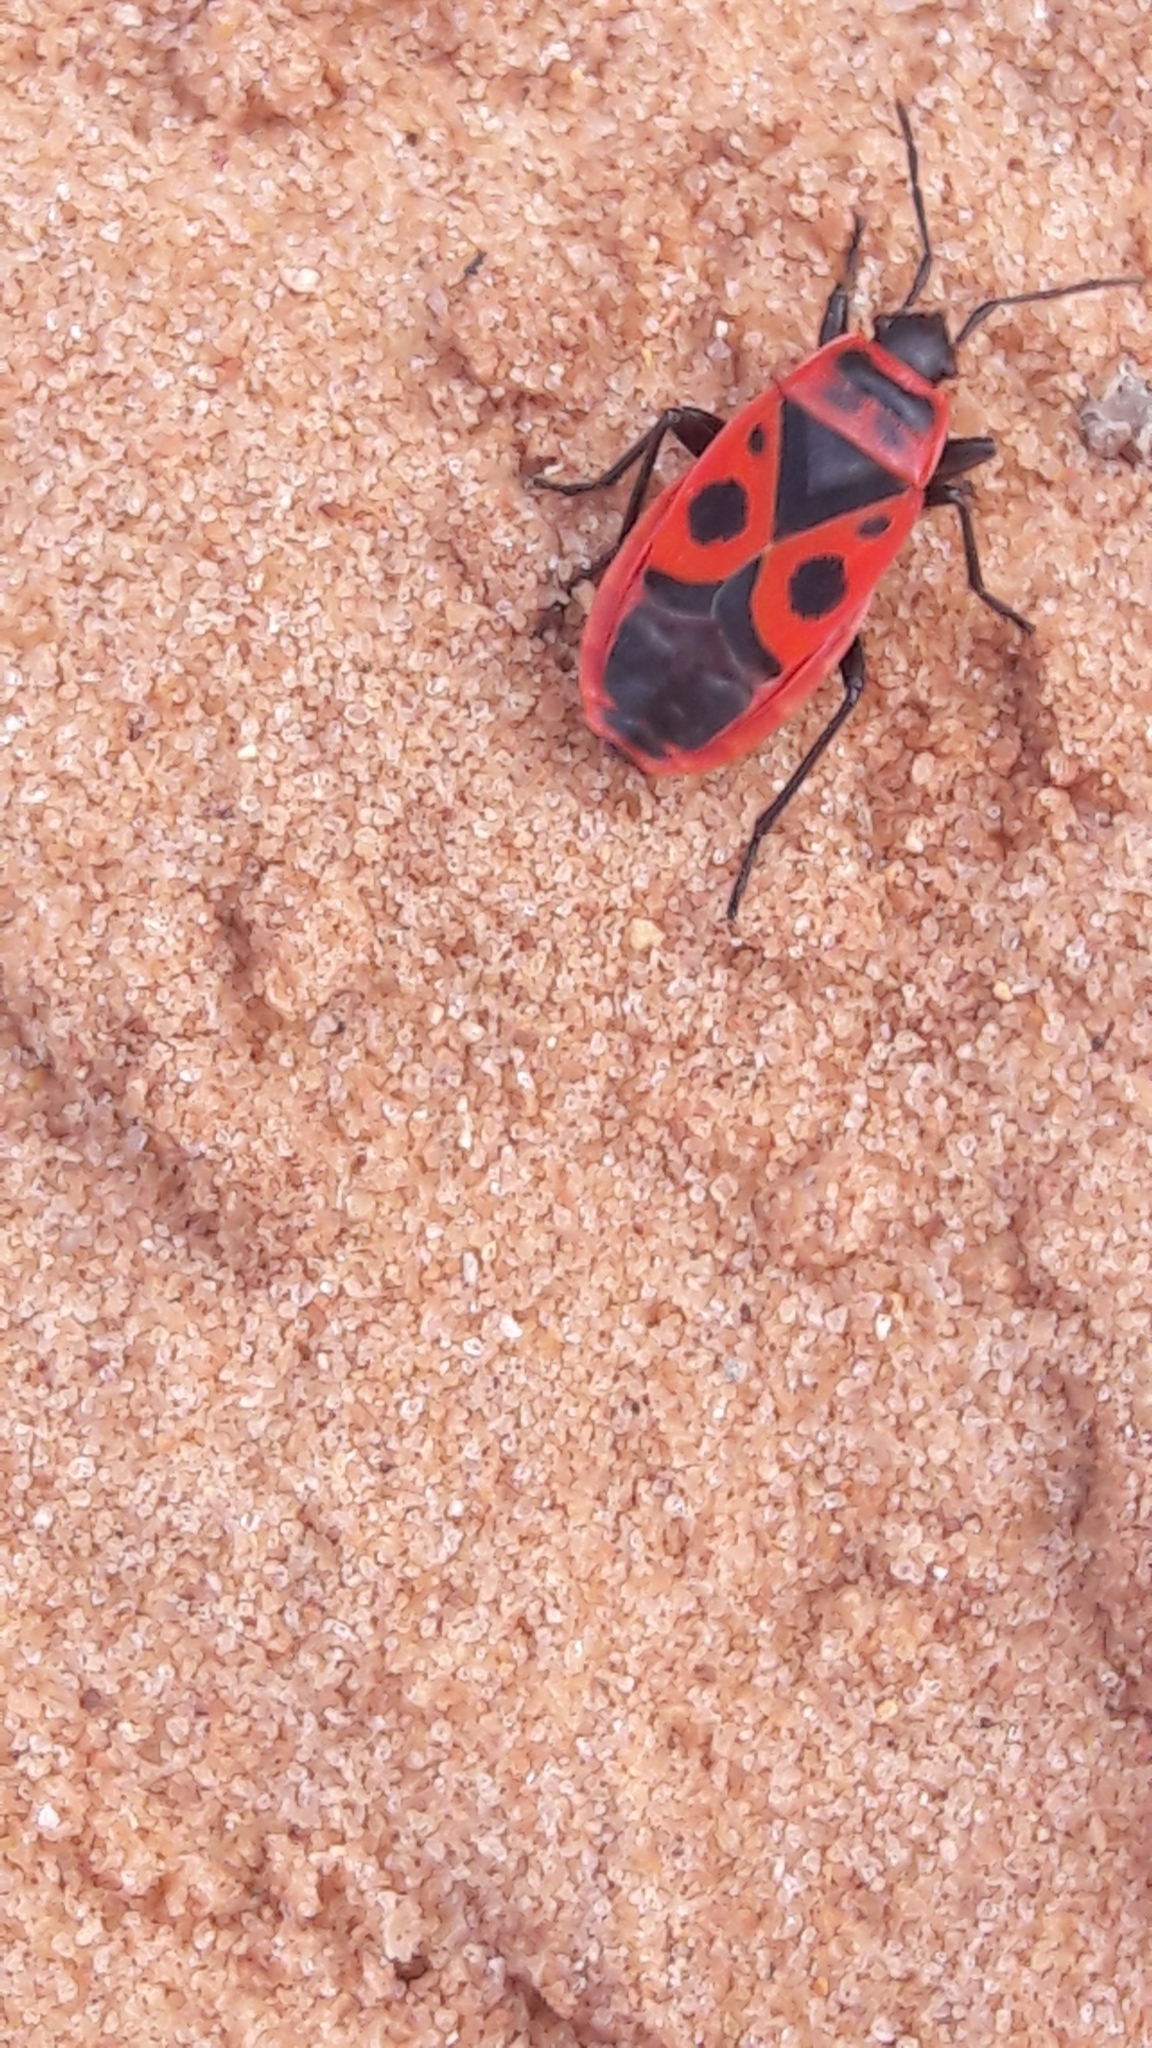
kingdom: Animalia
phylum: Arthropoda
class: Insecta
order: Hemiptera
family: Pyrrhocoridae
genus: Pyrrhocoris
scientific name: Pyrrhocoris apterus
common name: Firebug
